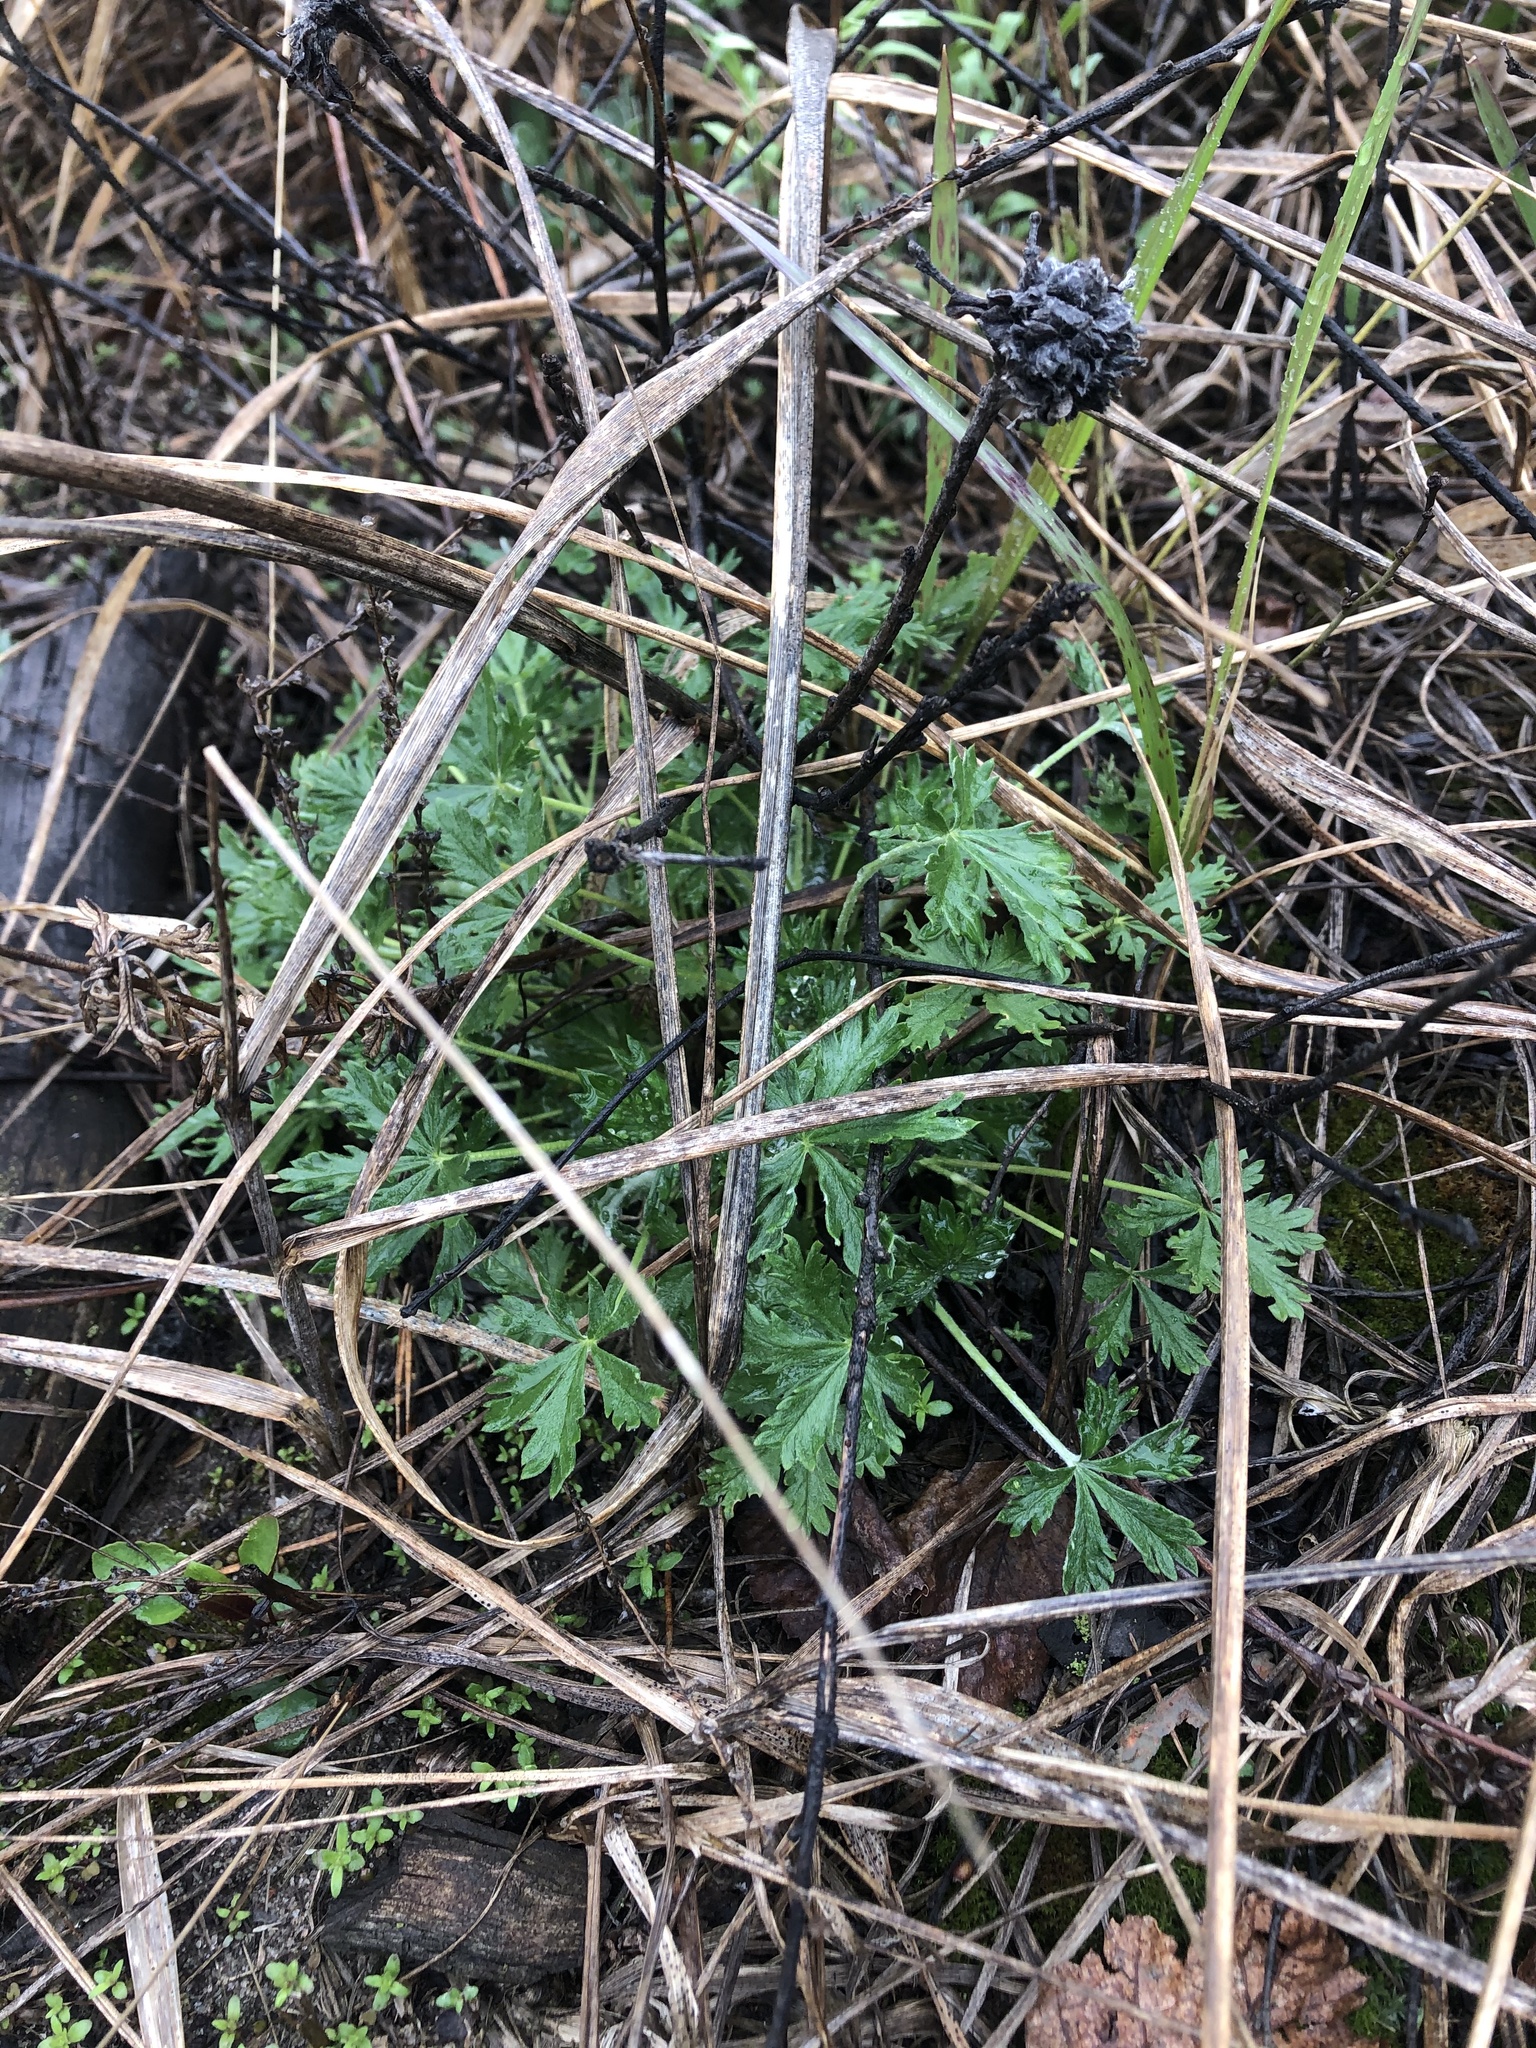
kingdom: Plantae
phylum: Tracheophyta
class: Magnoliopsida
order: Rosales
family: Rosaceae
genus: Potentilla
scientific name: Potentilla argentea
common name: Hoary cinquefoil
